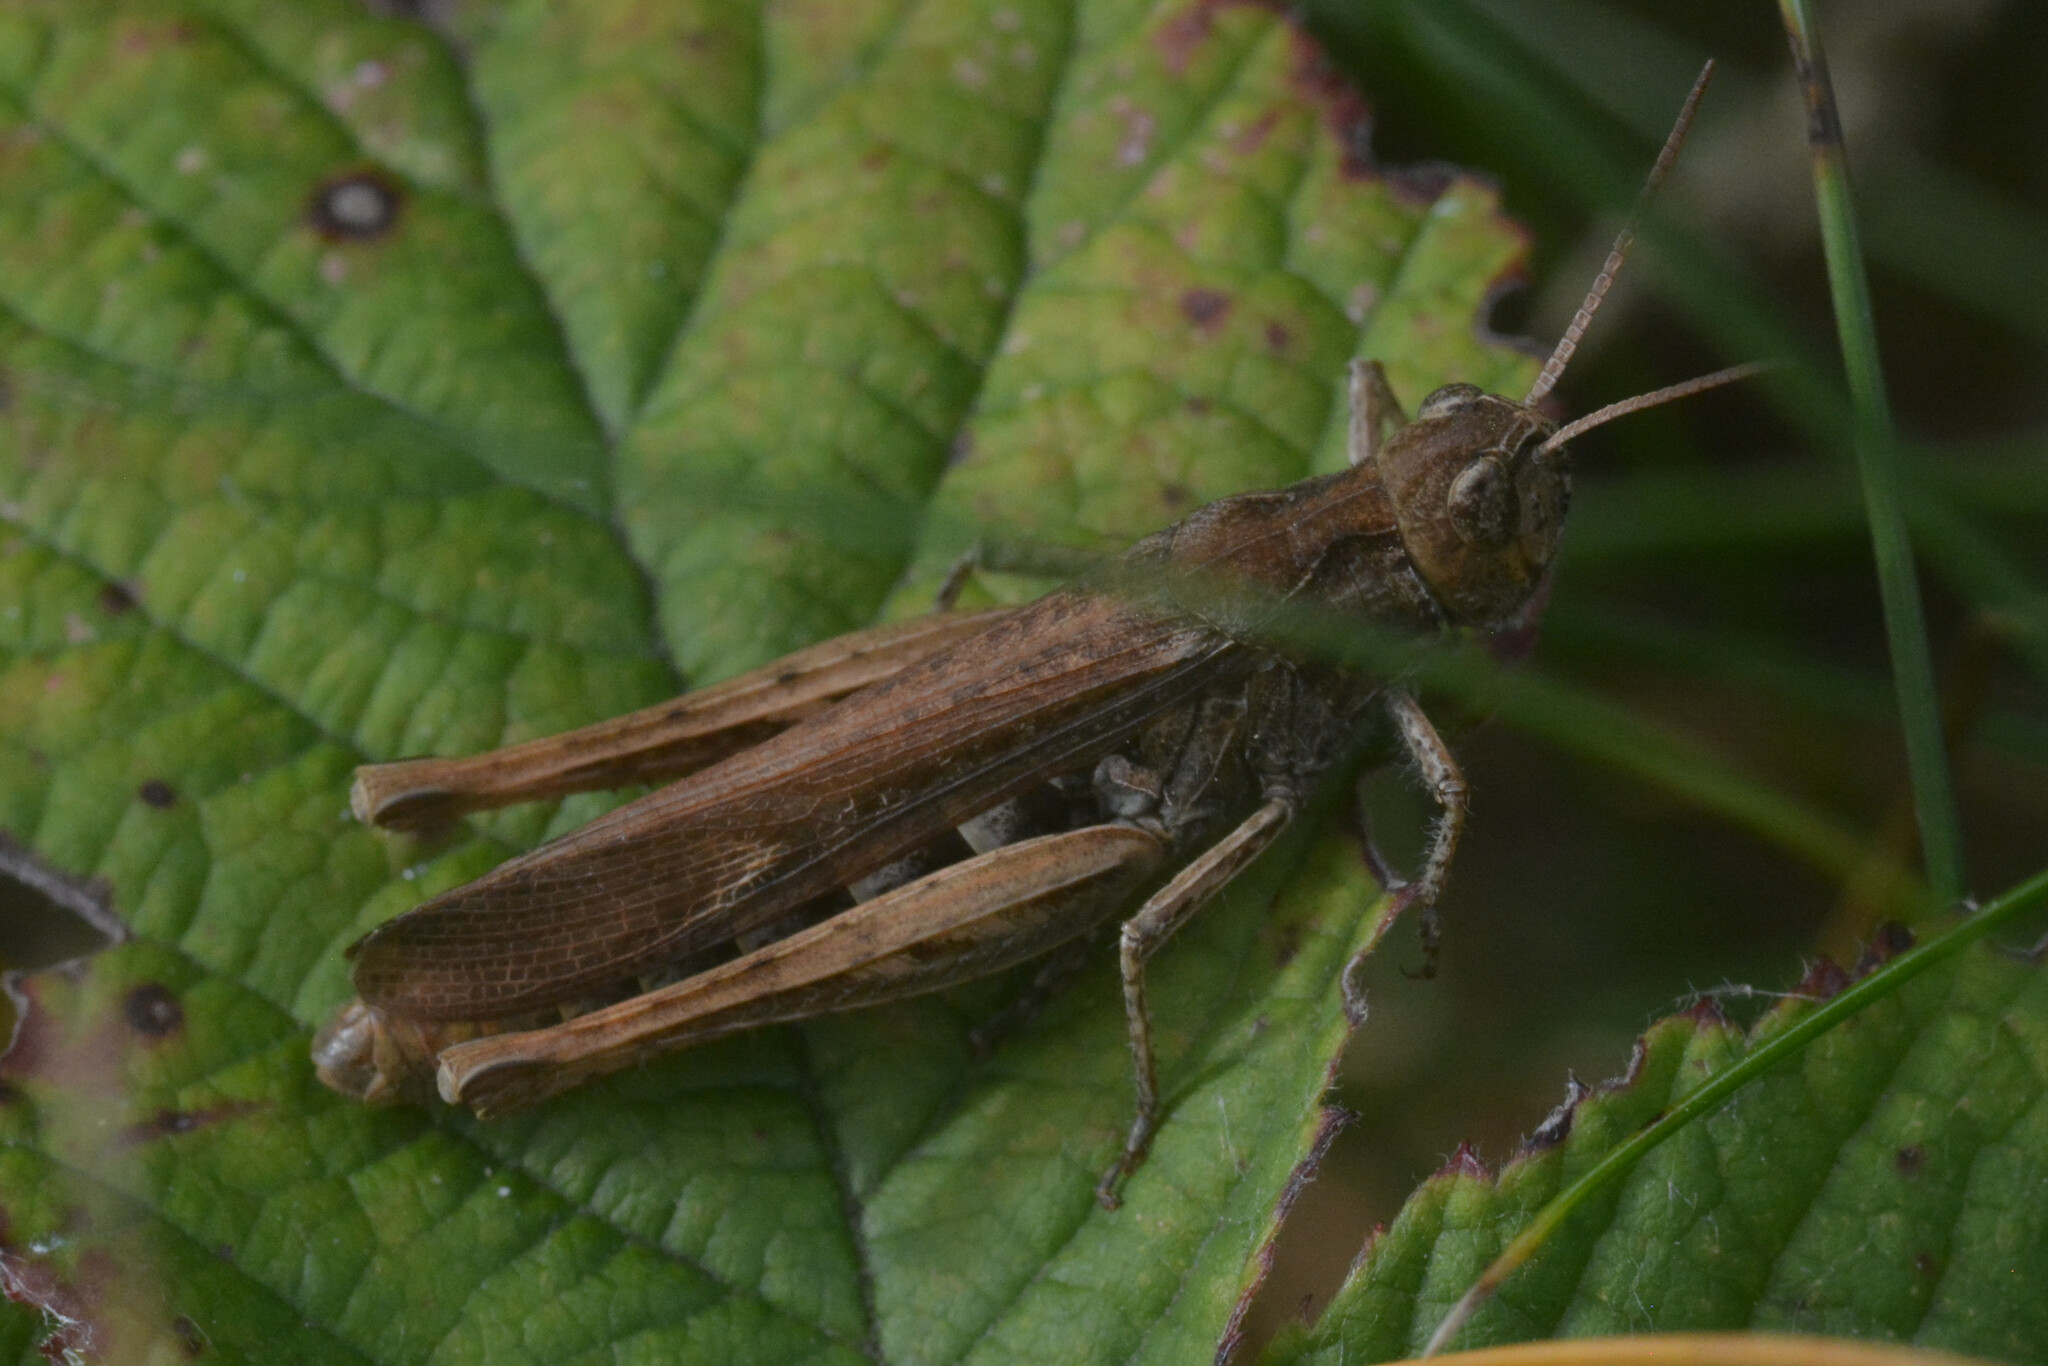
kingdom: Animalia
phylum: Arthropoda
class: Insecta
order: Orthoptera
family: Acrididae
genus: Chorthippus
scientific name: Chorthippus brunneus
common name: Field grasshopper
